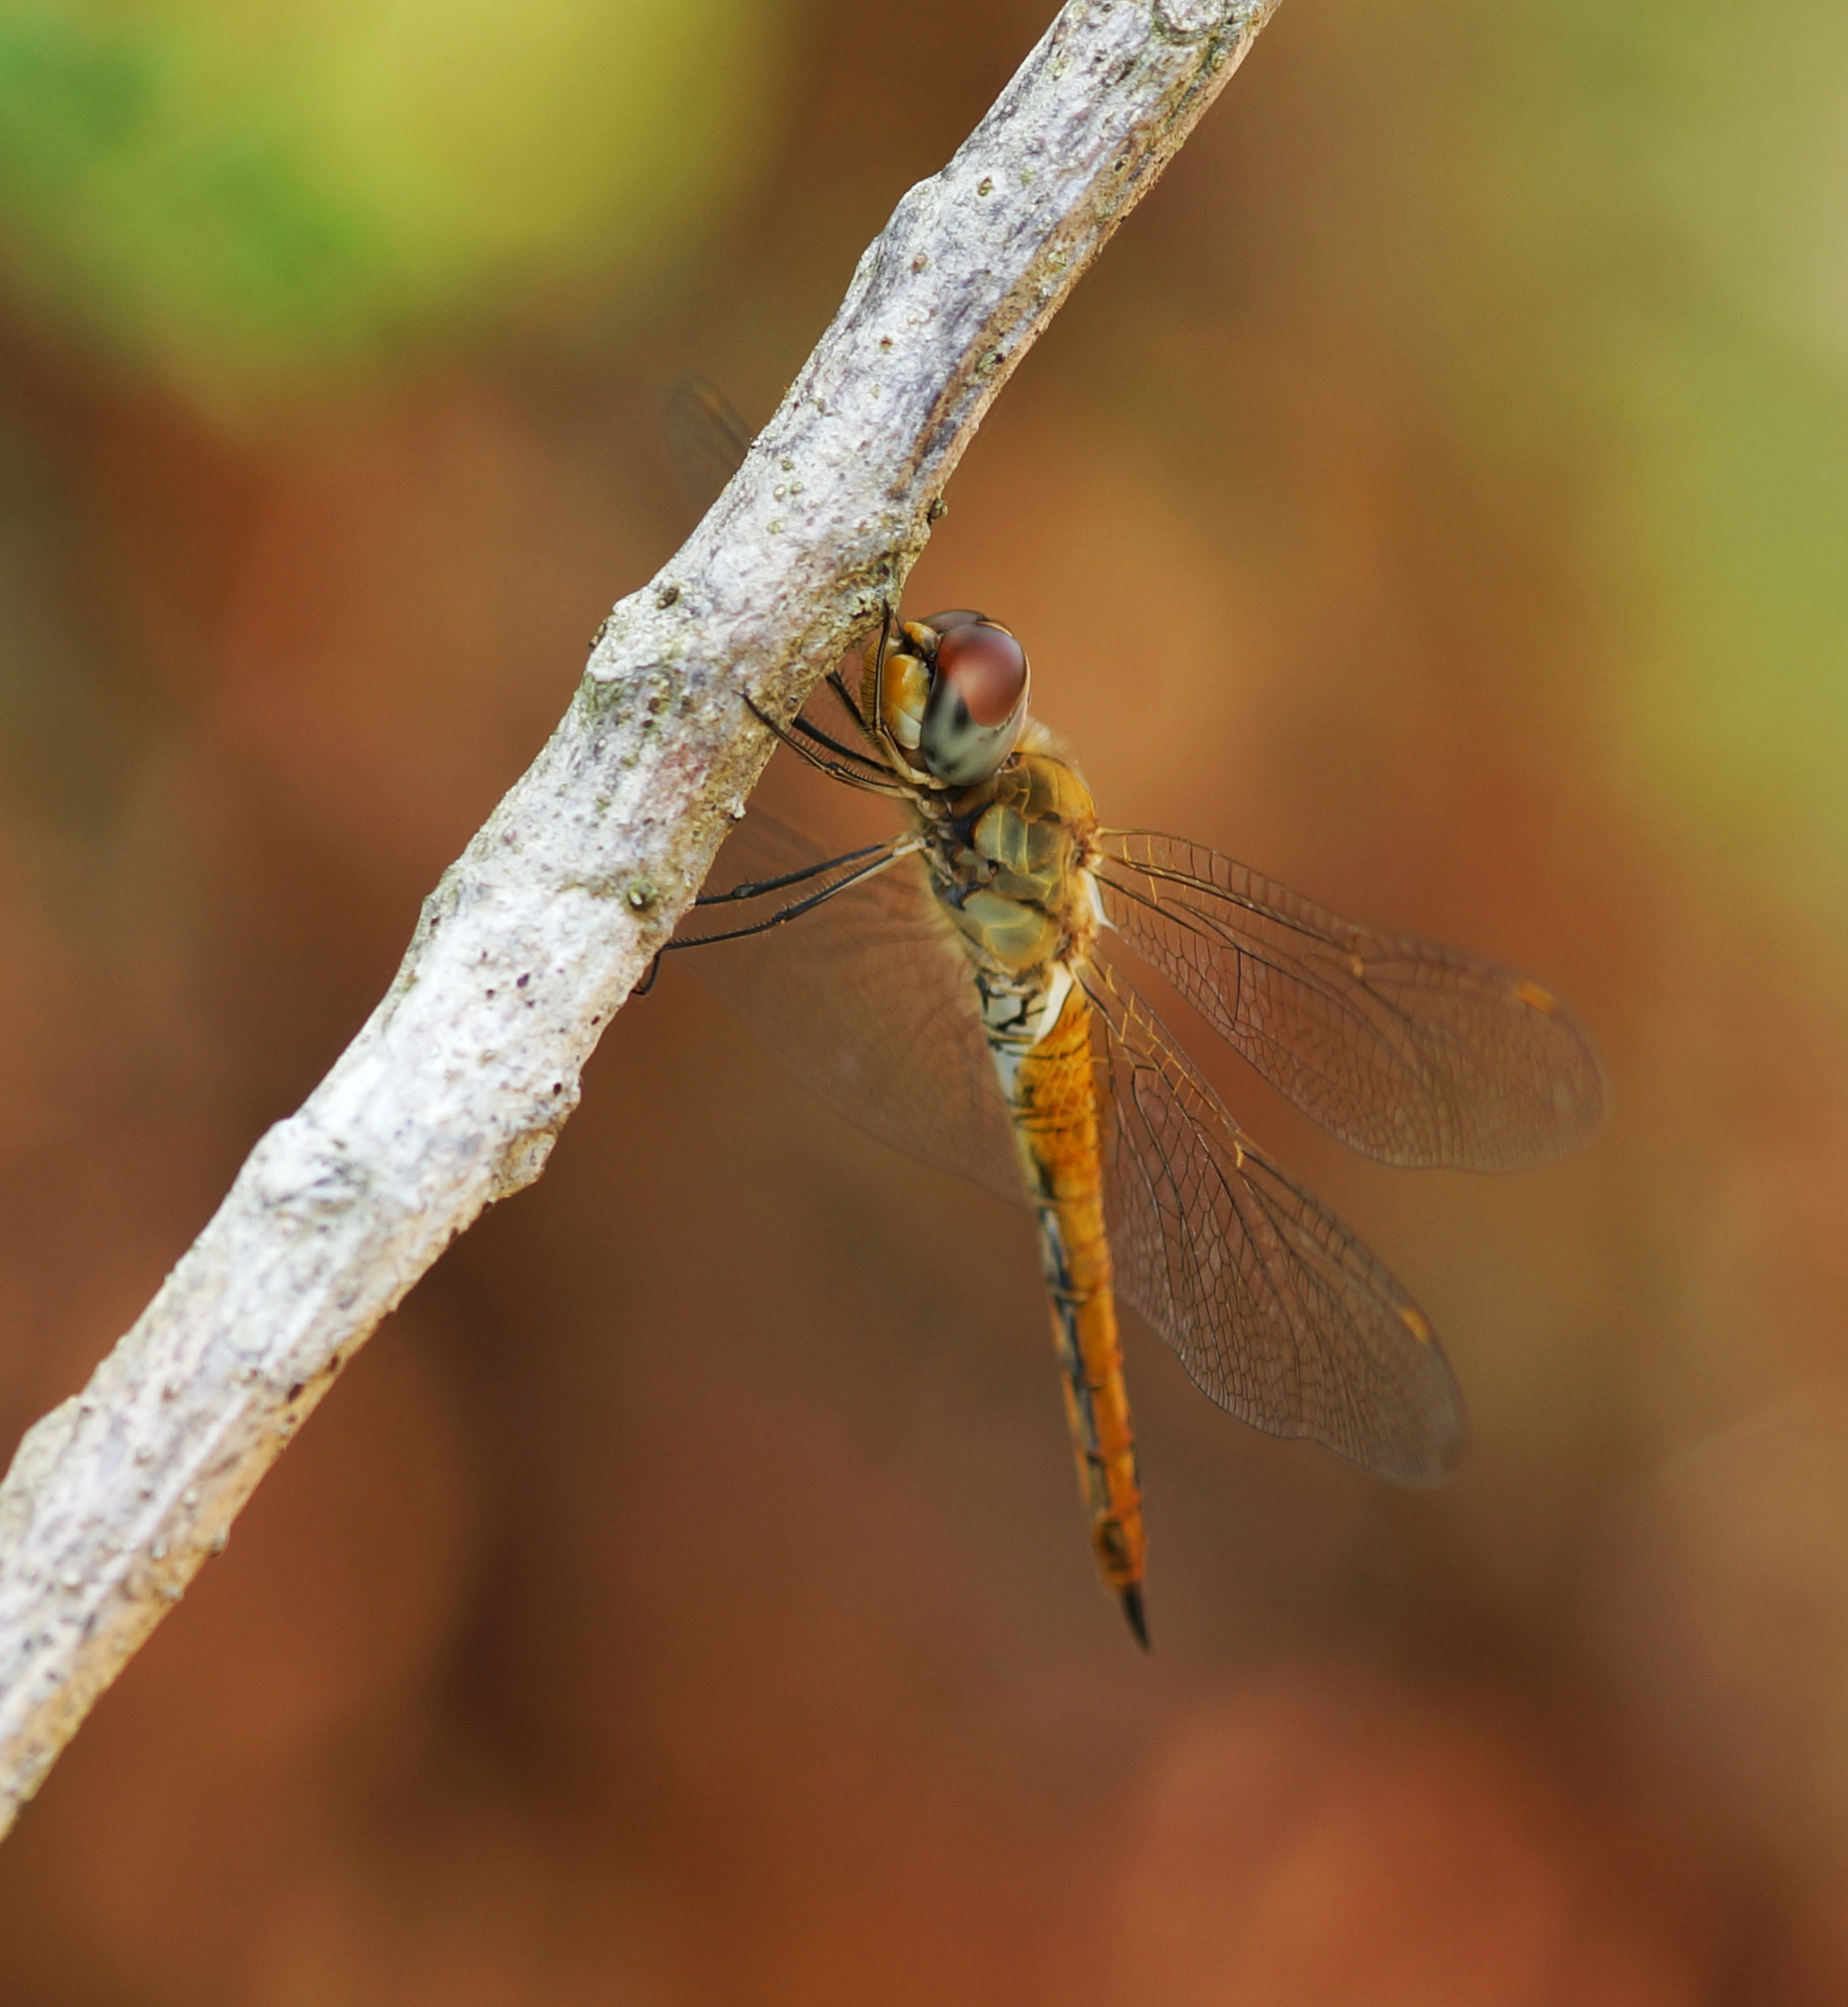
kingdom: Animalia
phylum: Arthropoda
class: Insecta
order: Odonata
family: Libellulidae
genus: Pantala
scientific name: Pantala flavescens
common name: Wandering glider
